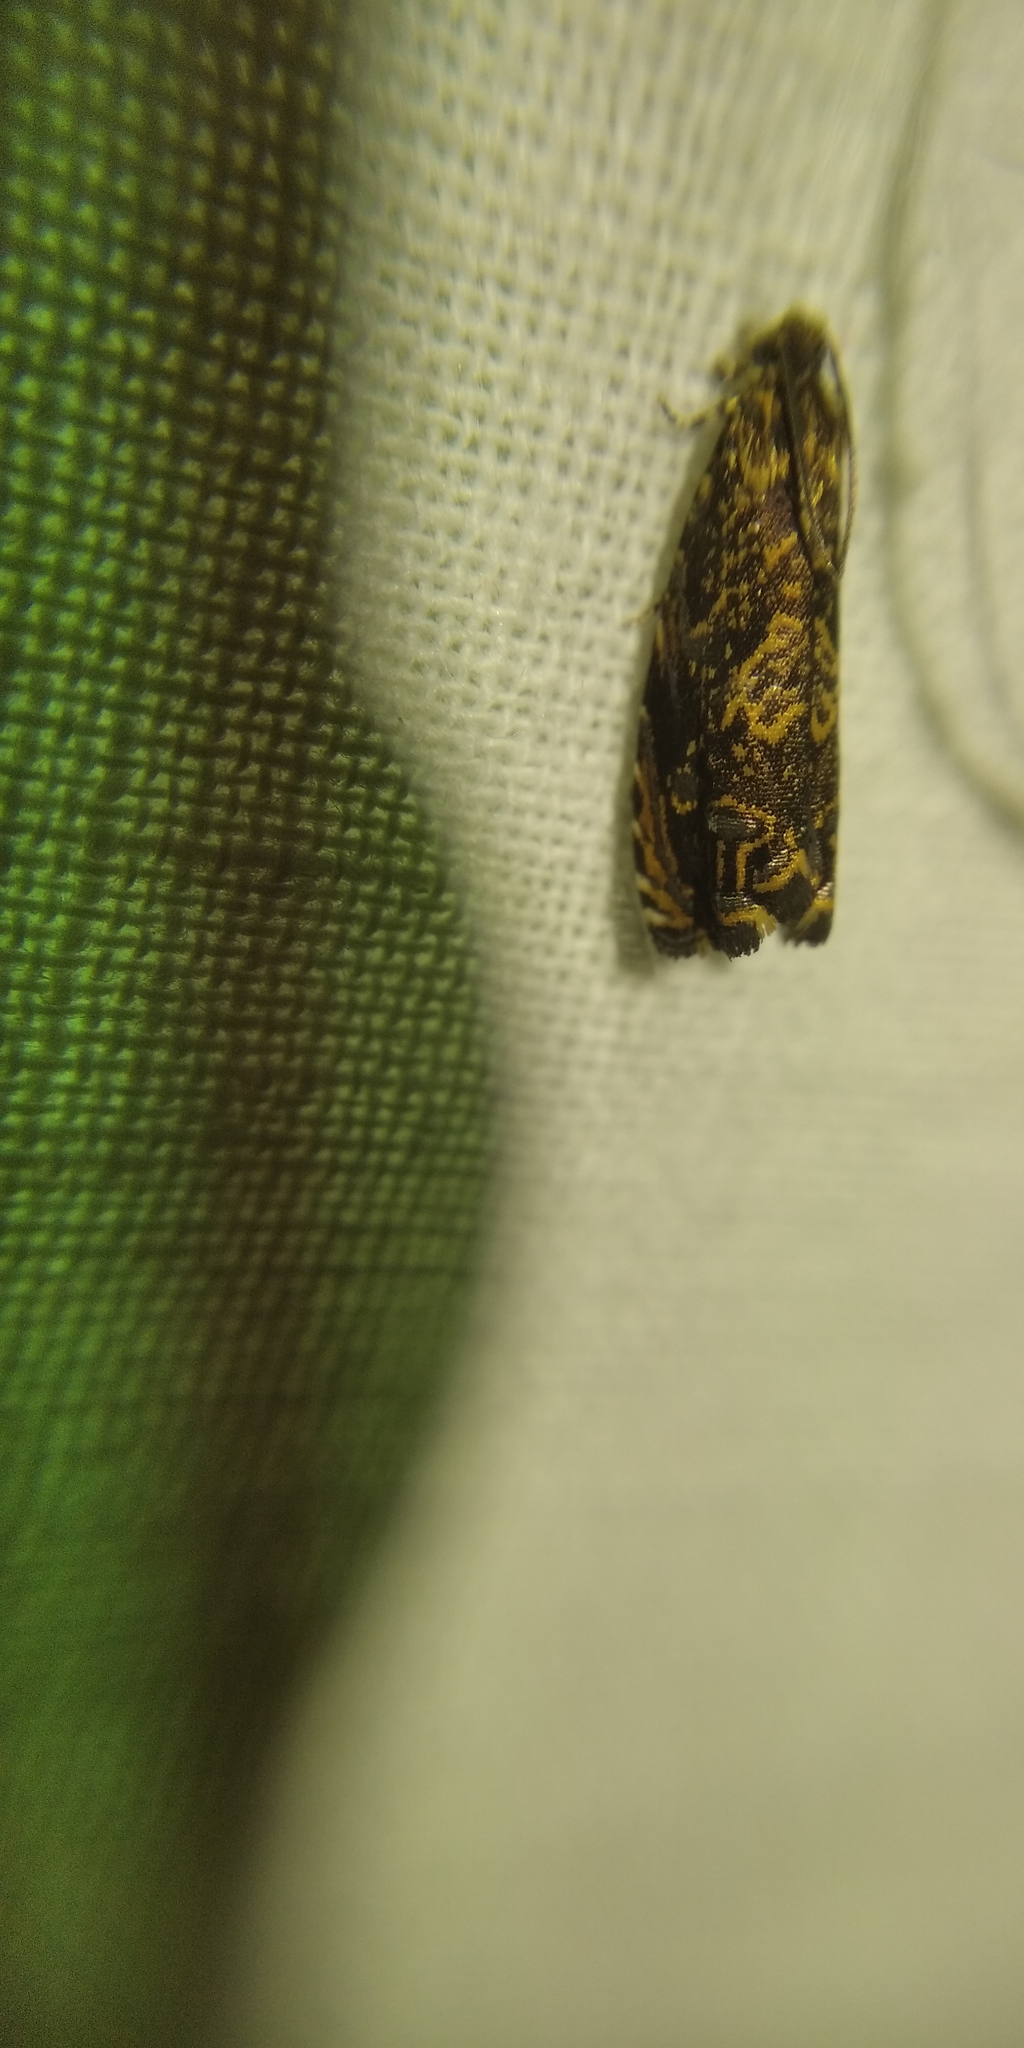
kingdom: Animalia
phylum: Arthropoda
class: Insecta
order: Lepidoptera
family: Tortricidae
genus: Enarmonia
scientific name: Enarmonia formosana
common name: Cherry bark tortrix
